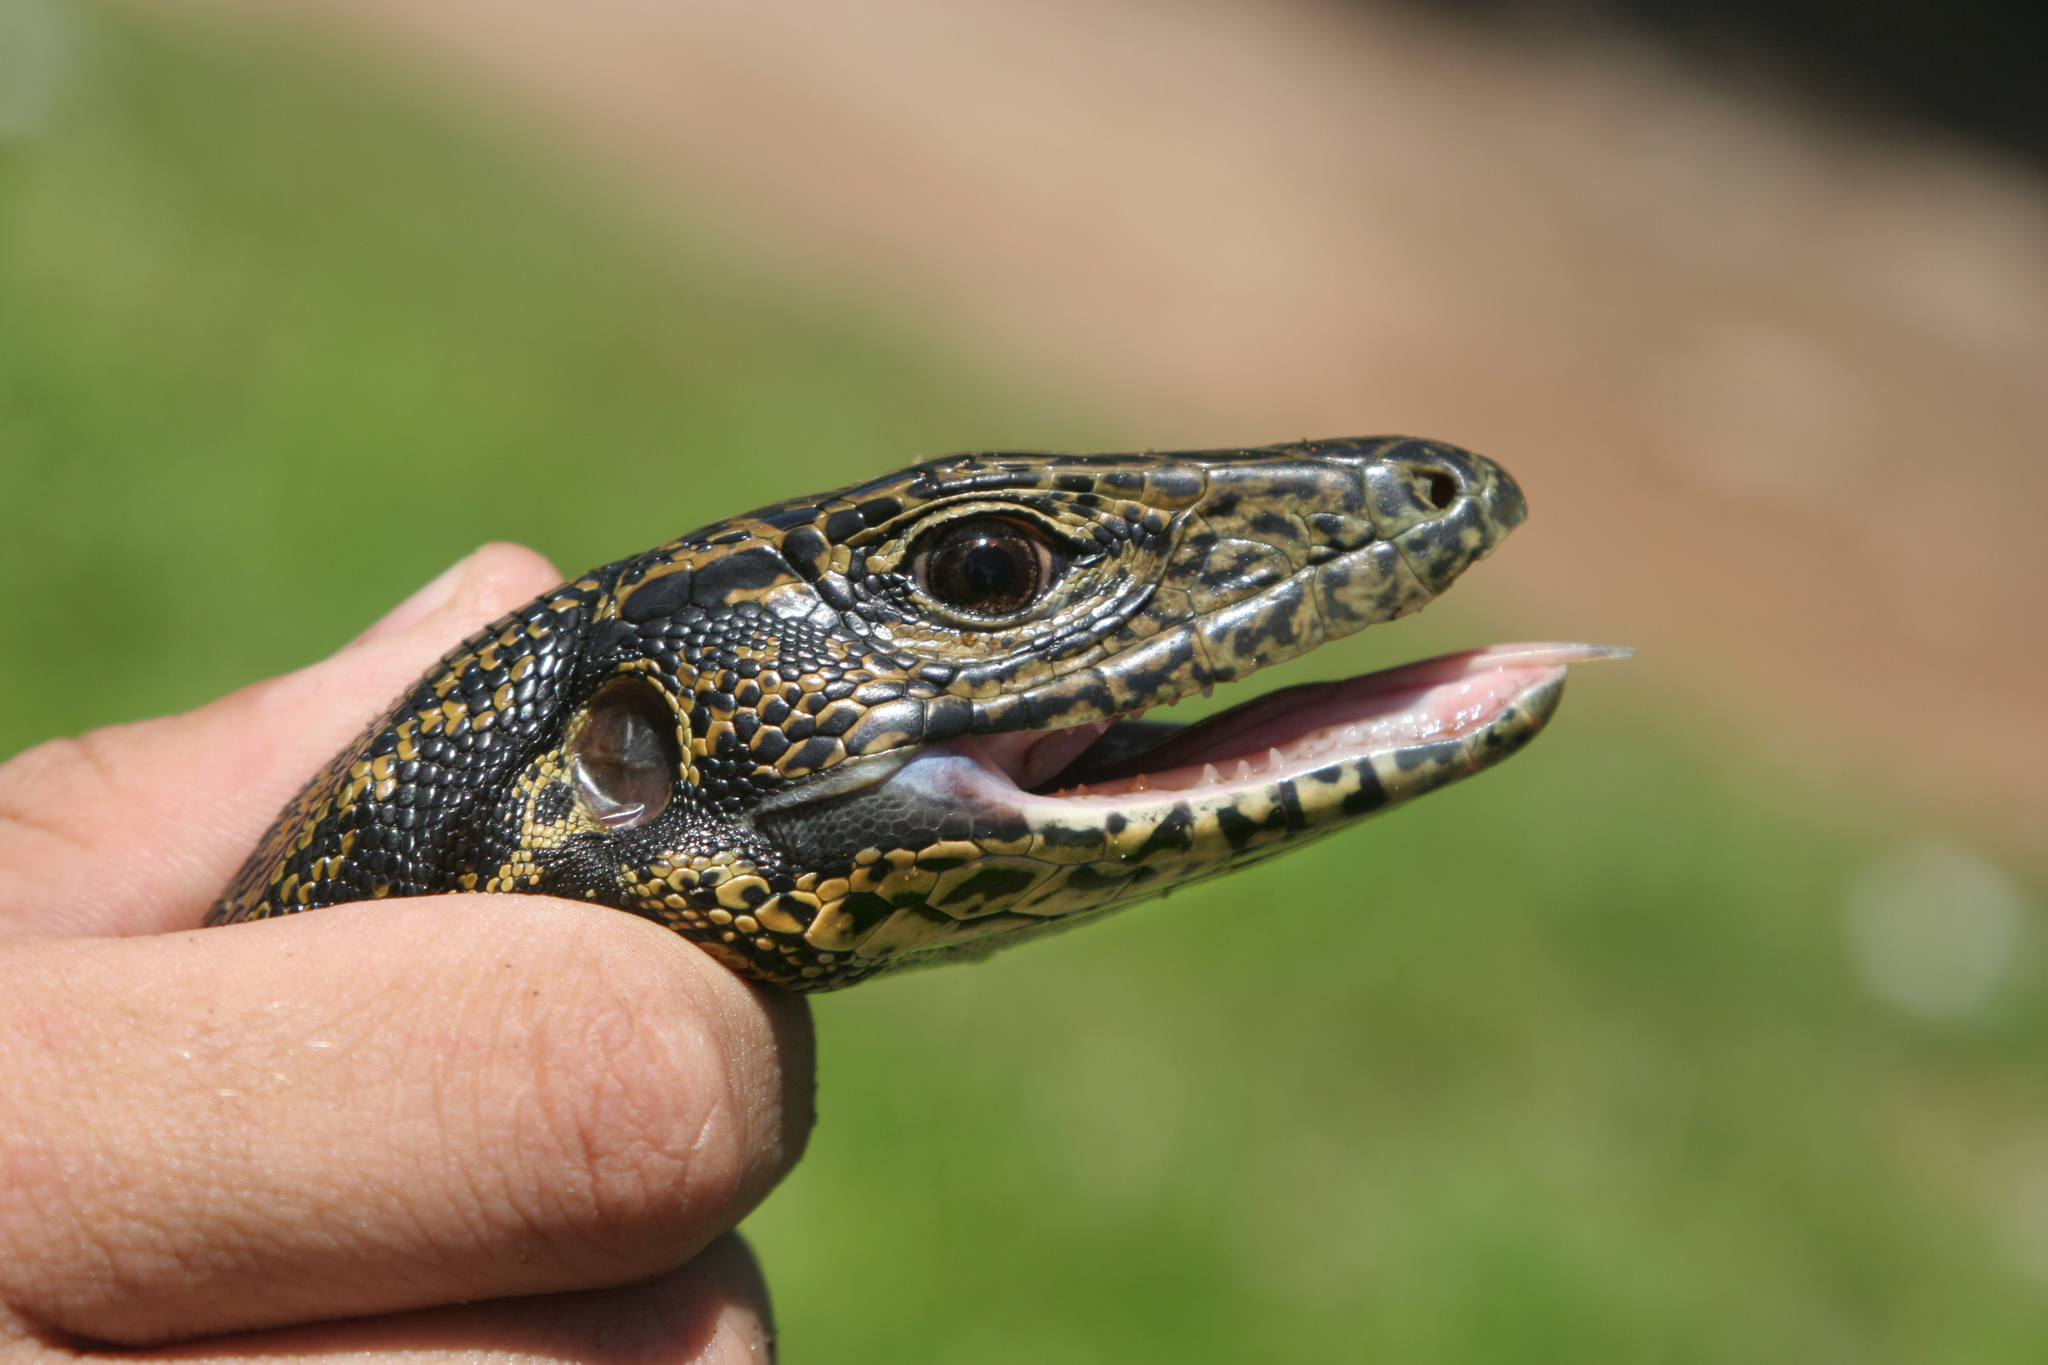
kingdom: Animalia
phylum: Chordata
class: Squamata
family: Teiidae
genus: Tupinambis
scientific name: Tupinambis teguixin
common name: Black tegu
